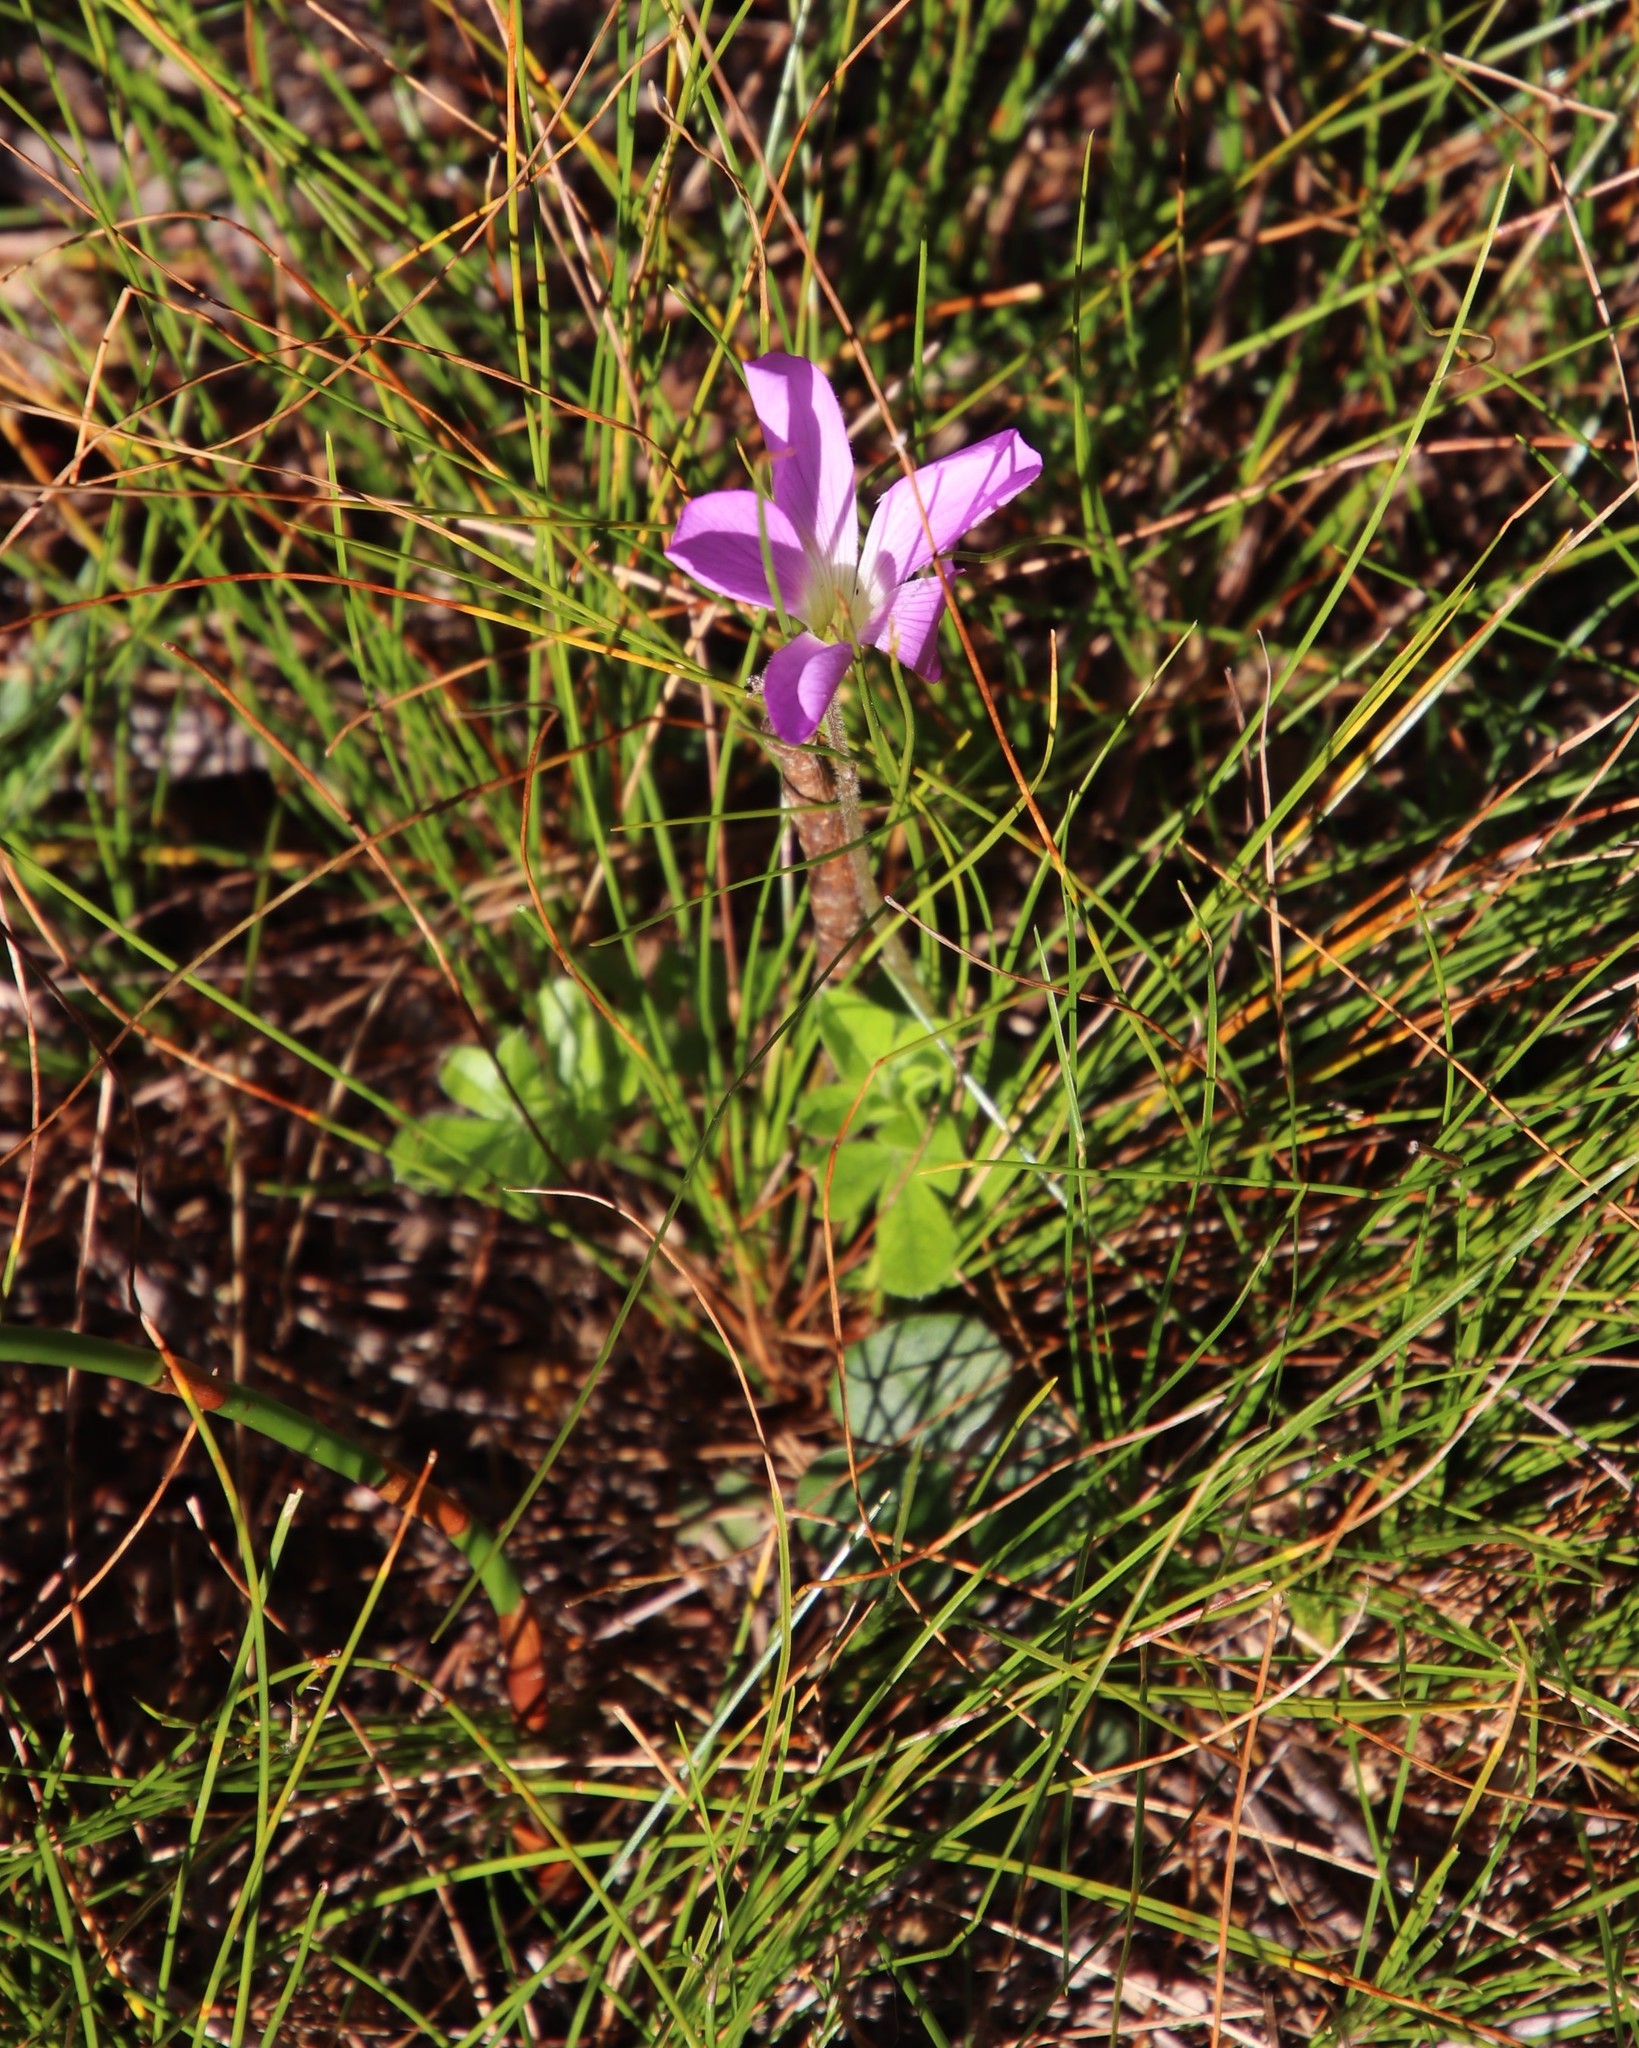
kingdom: Plantae
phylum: Tracheophyta
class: Magnoliopsida
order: Oxalidales
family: Oxalidaceae
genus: Oxalis
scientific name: Oxalis truncatula
